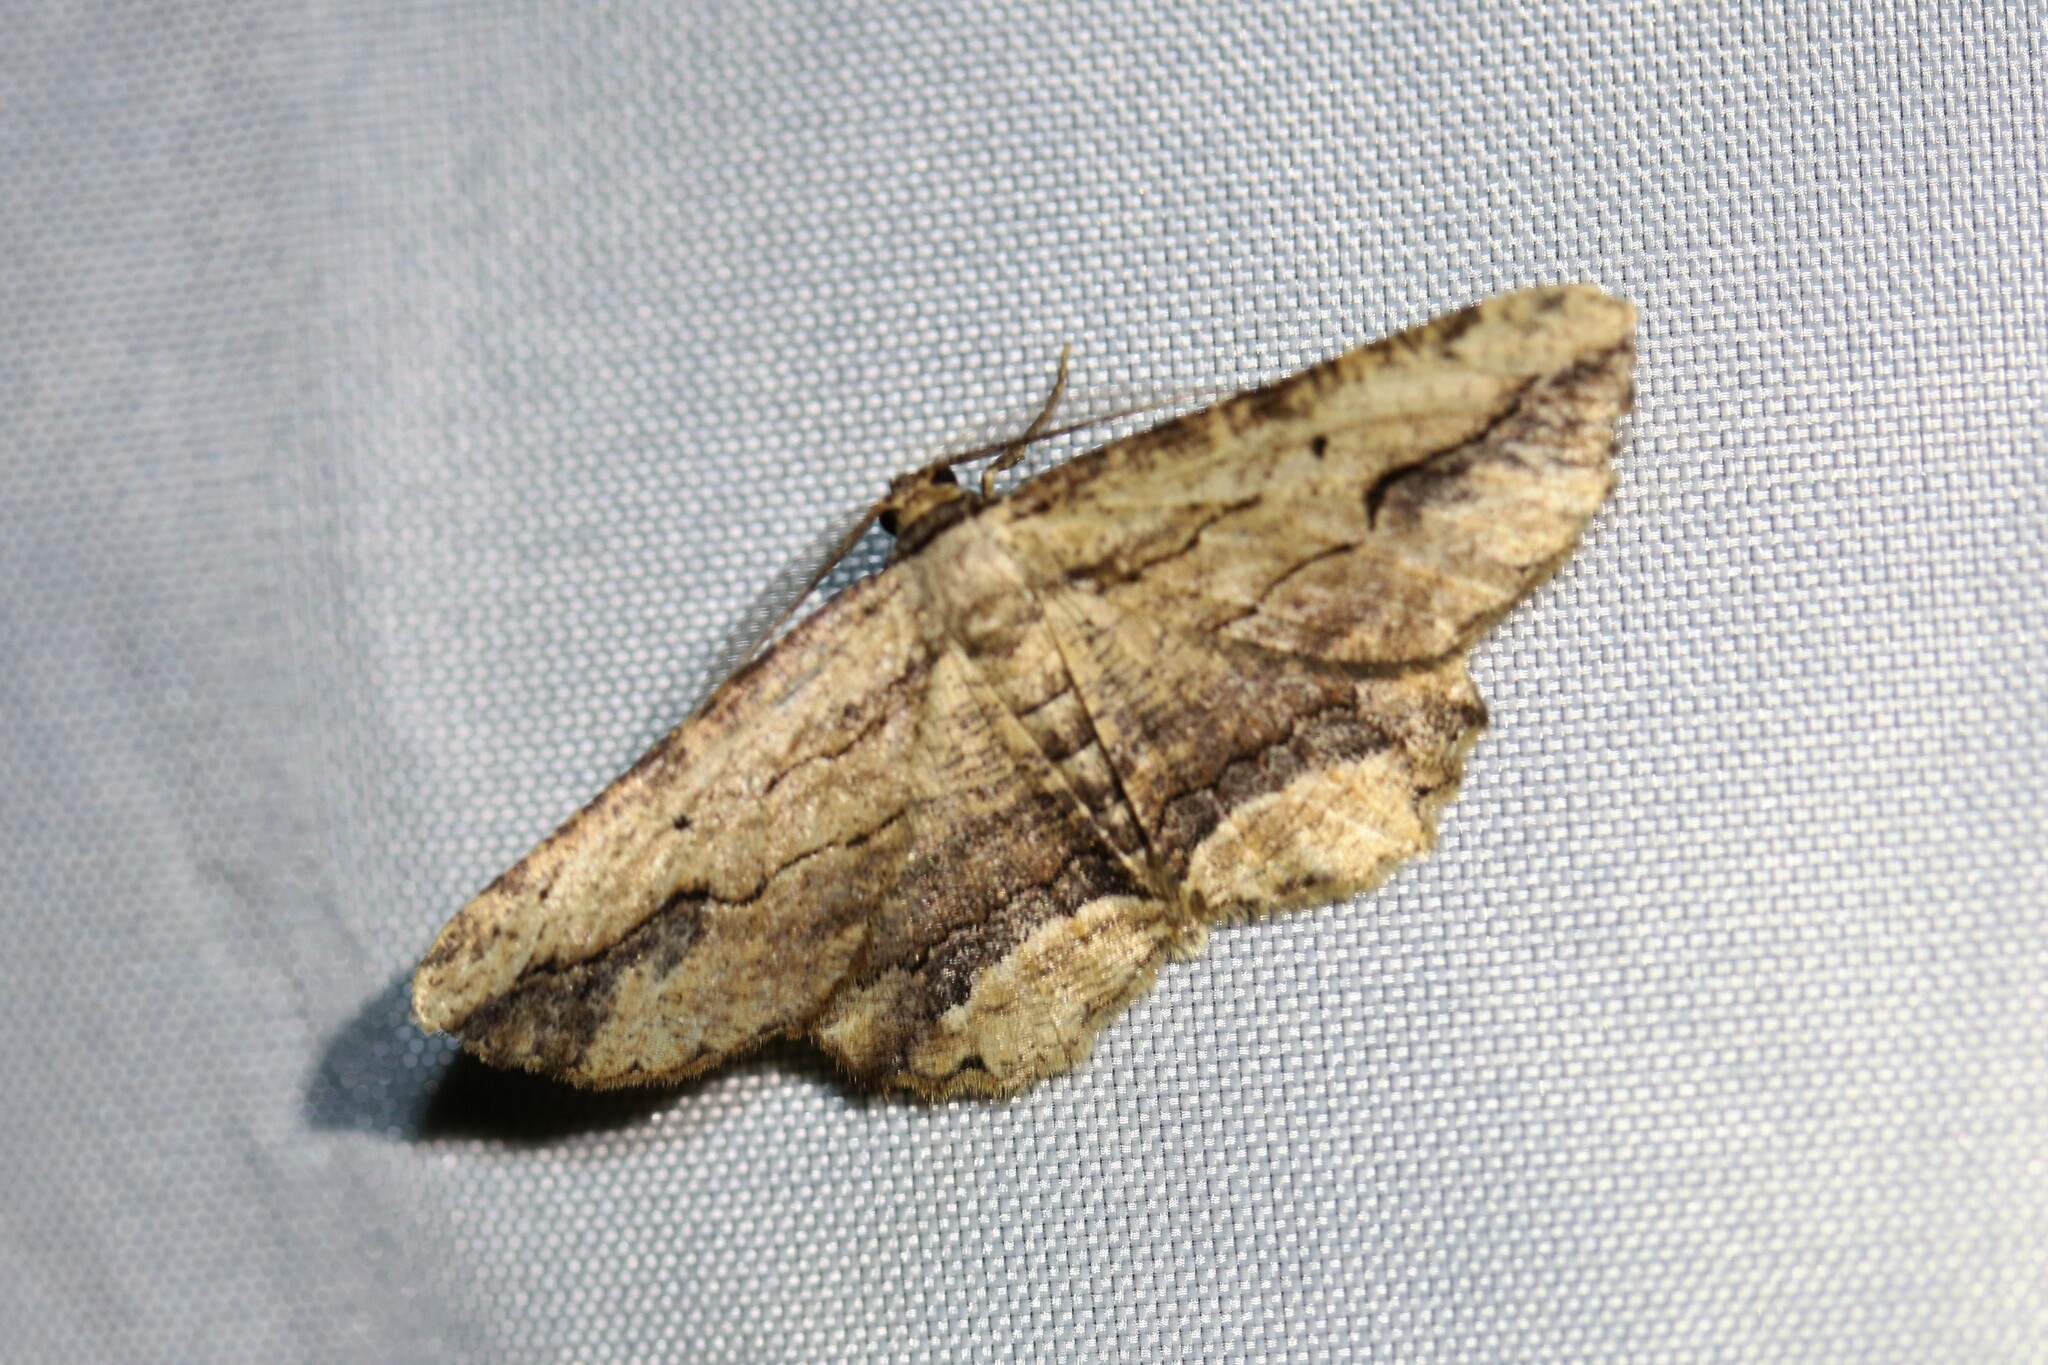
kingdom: Animalia
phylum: Arthropoda
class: Insecta
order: Lepidoptera
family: Geometridae
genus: Menophra
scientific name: Menophra abruptaria
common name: Waved umber
